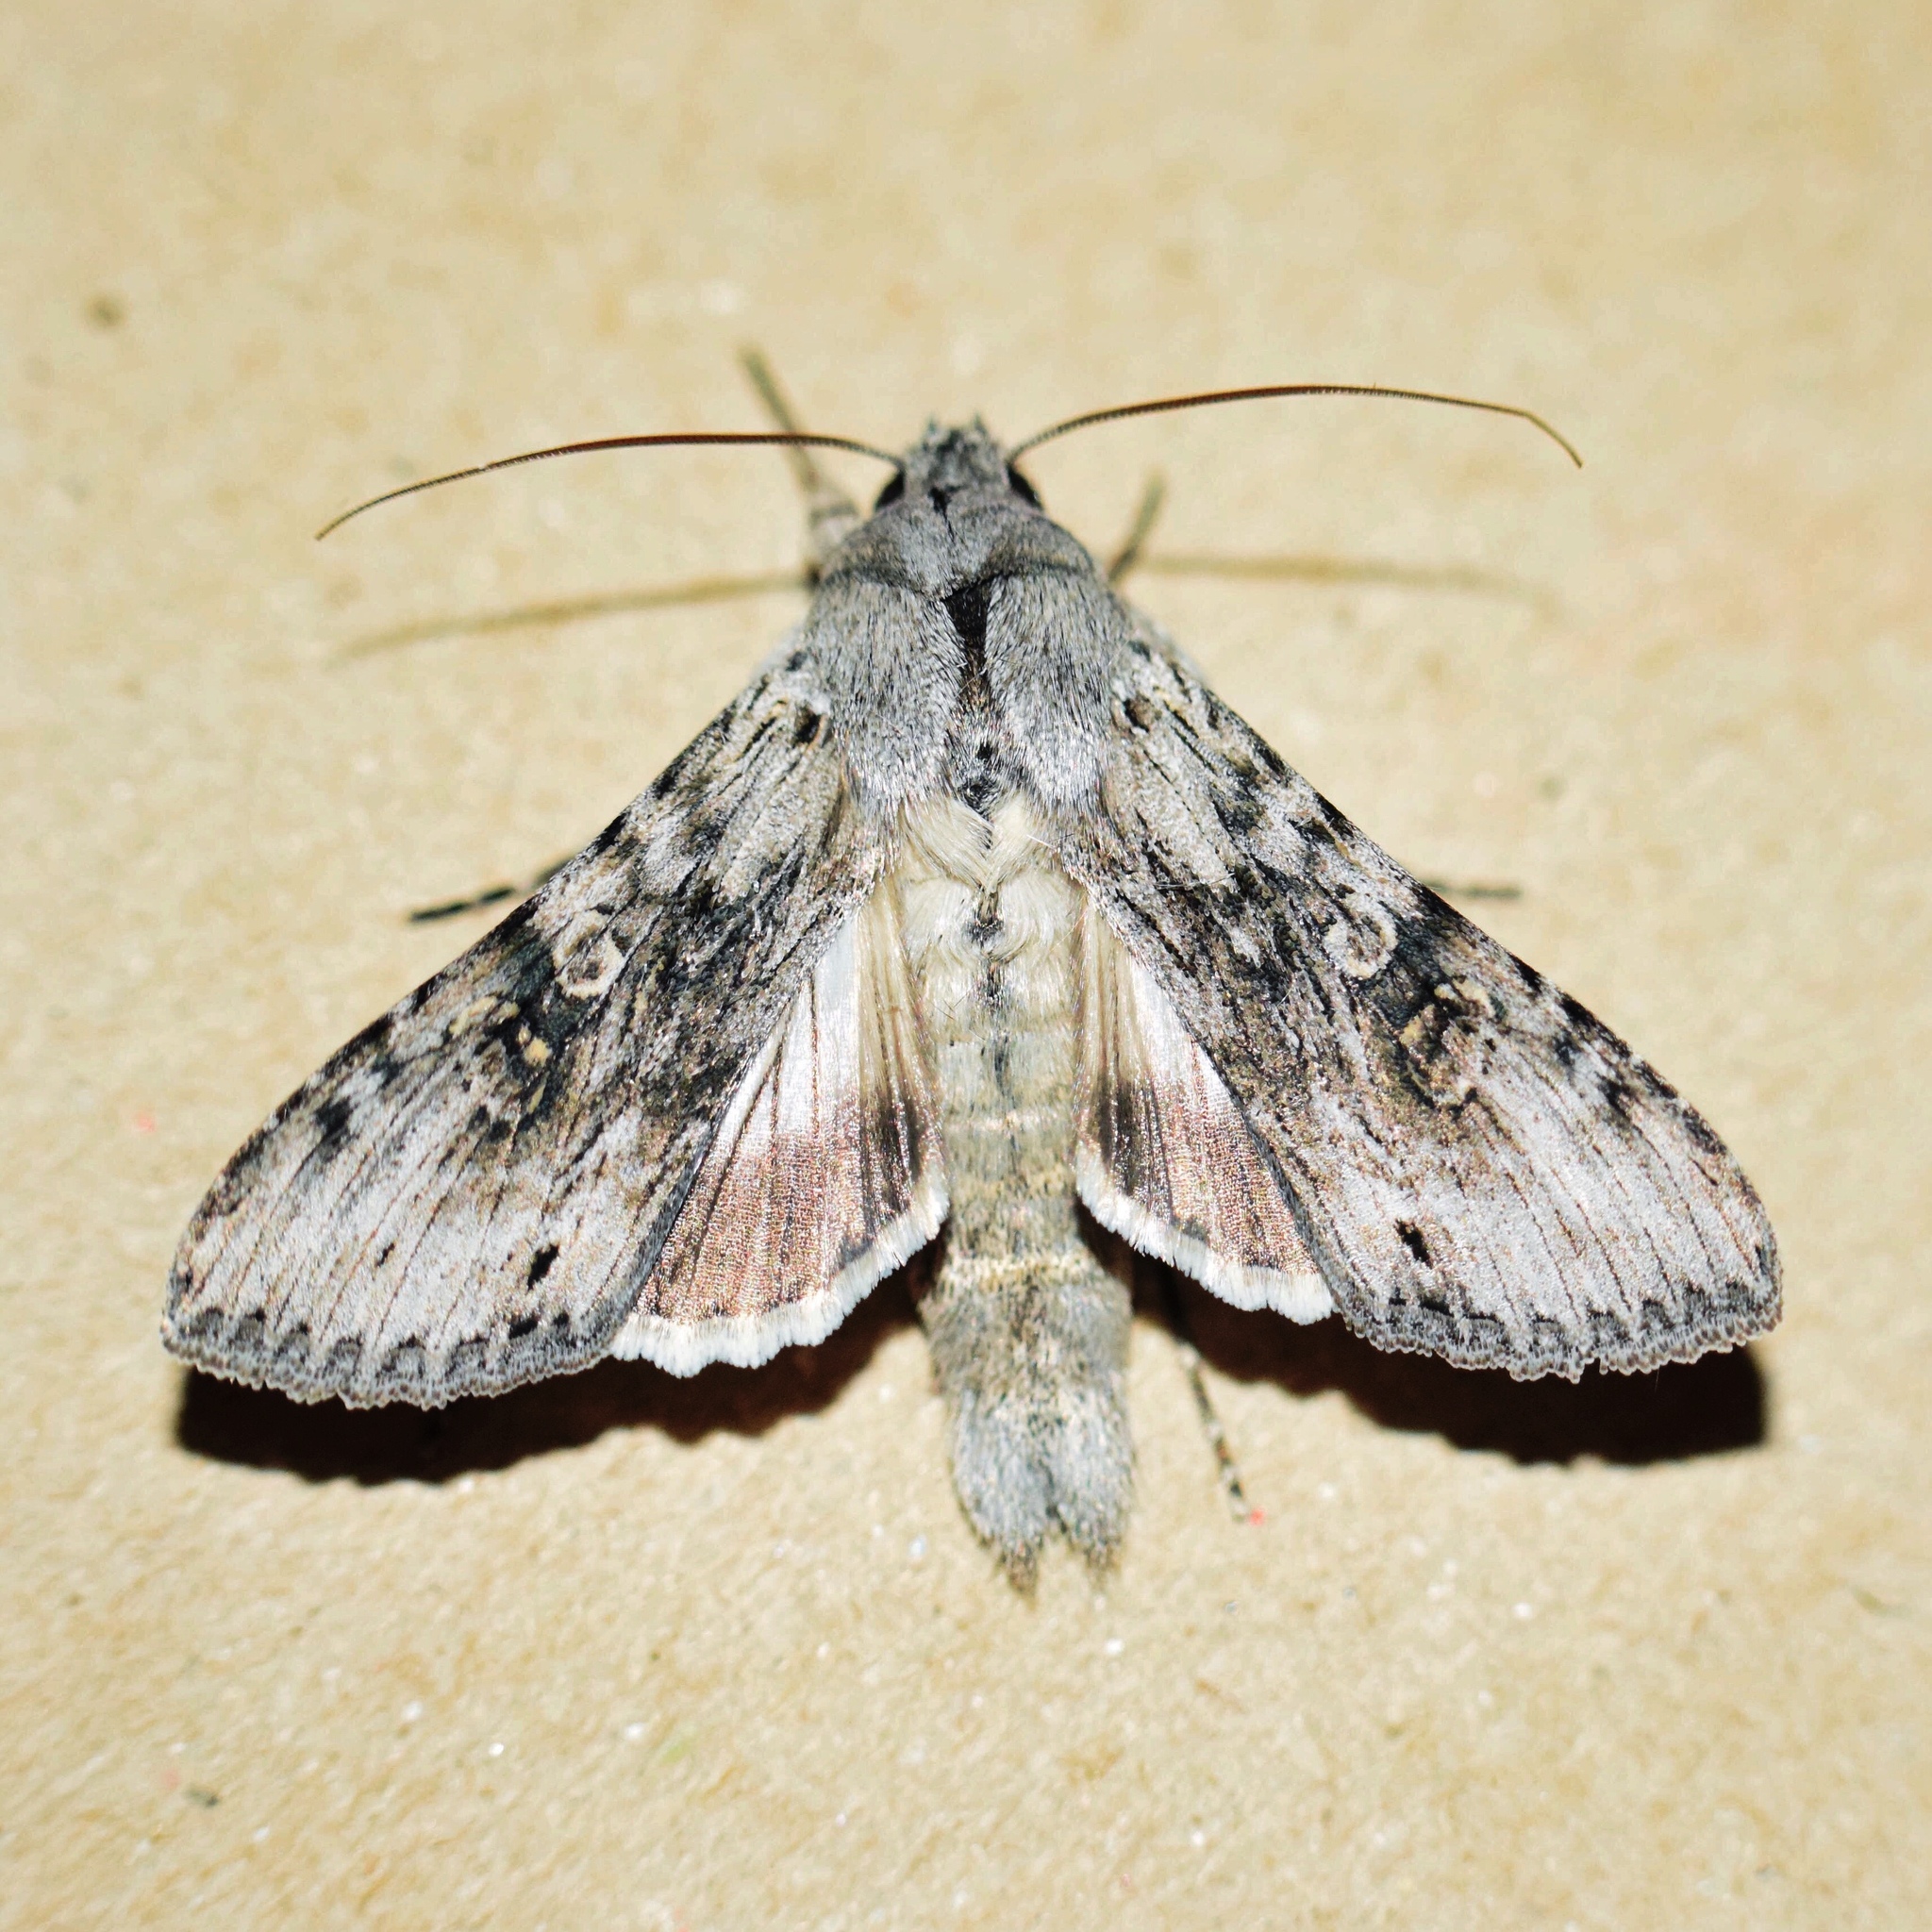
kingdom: Animalia
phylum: Arthropoda
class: Insecta
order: Lepidoptera
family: Noctuidae
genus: Cucullia
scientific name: Cucullia consimilis
